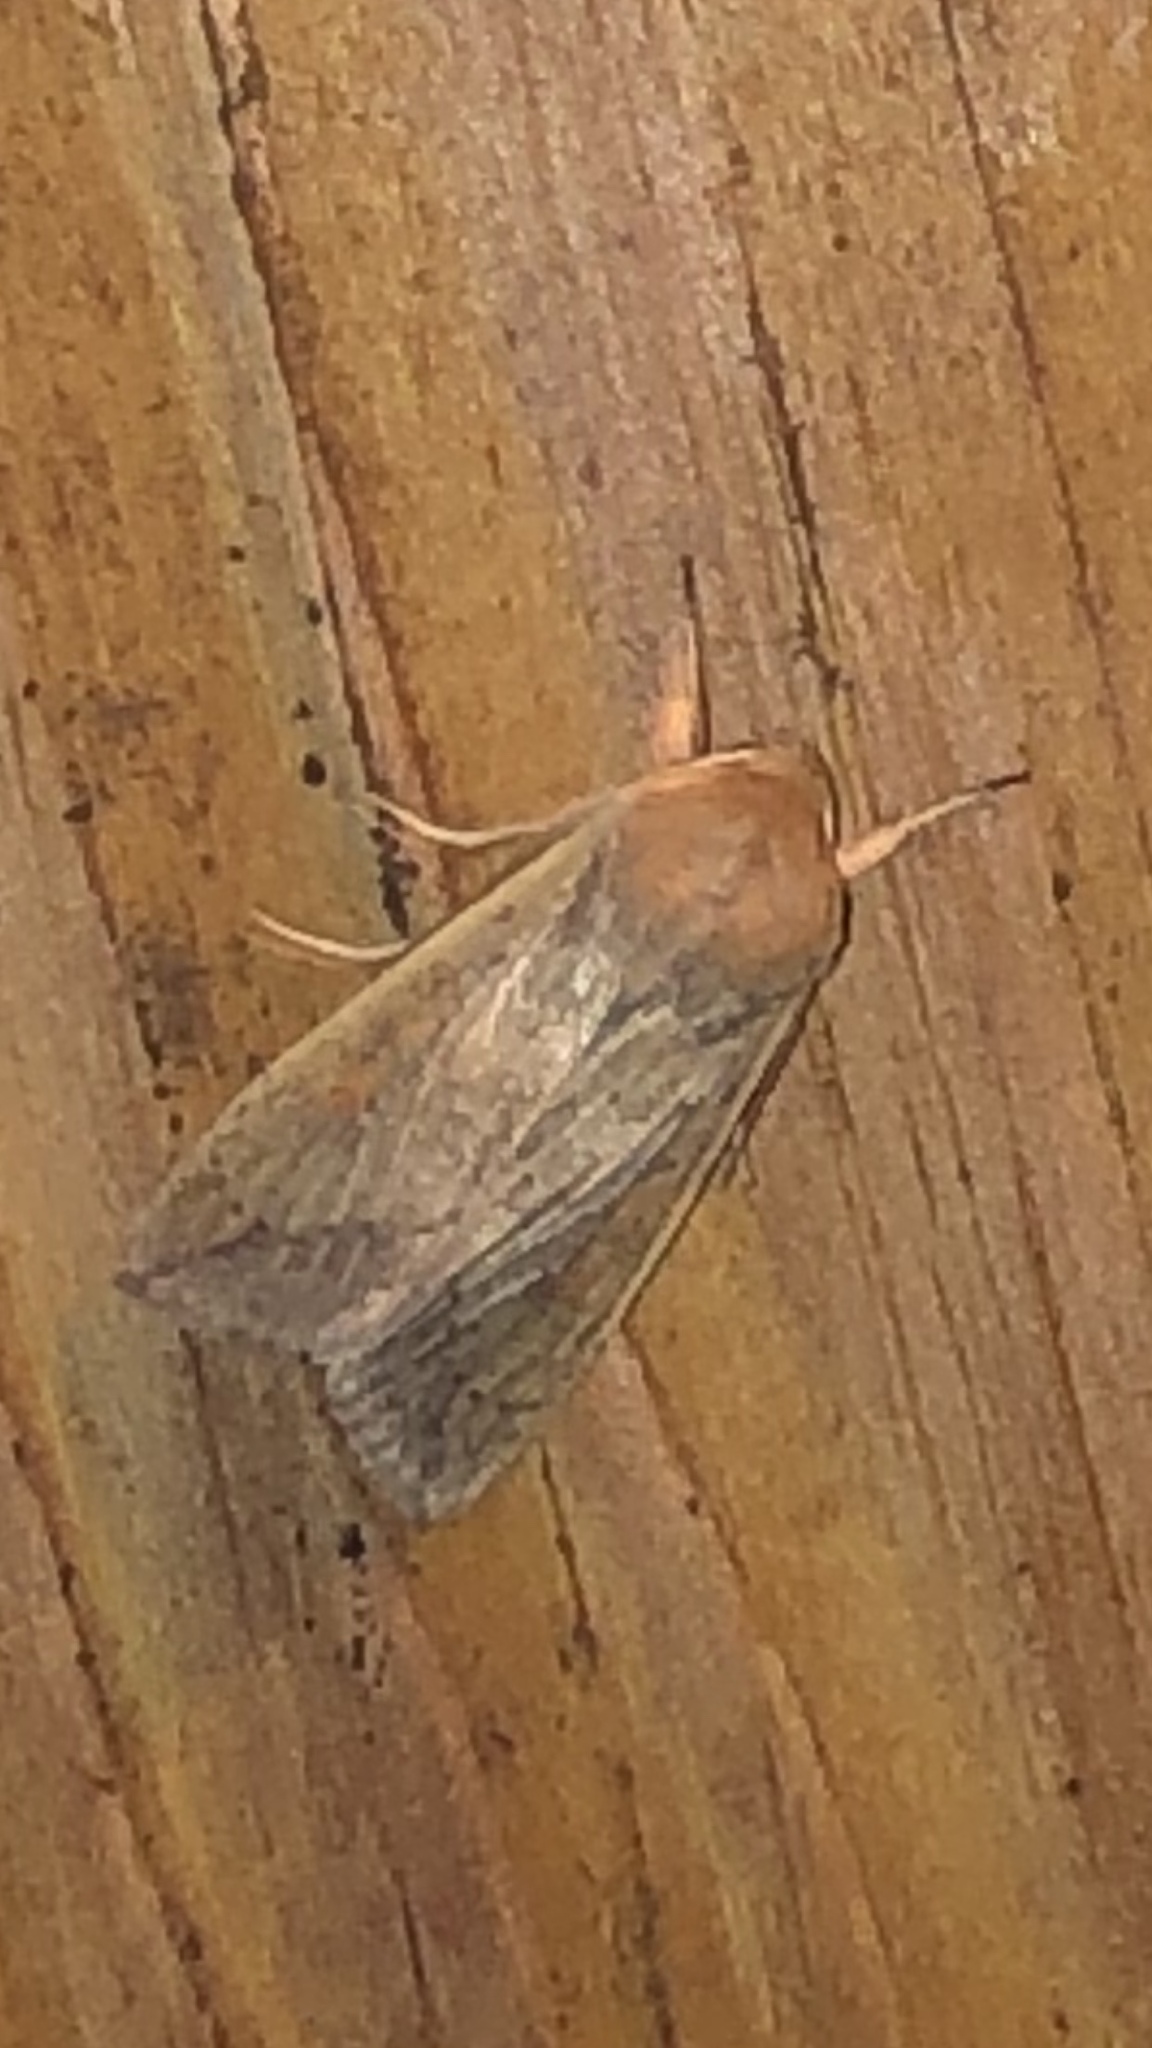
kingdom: Animalia
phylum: Arthropoda
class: Insecta
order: Lepidoptera
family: Noctuidae
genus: Mythimna
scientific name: Mythimna unipuncta
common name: White-speck
